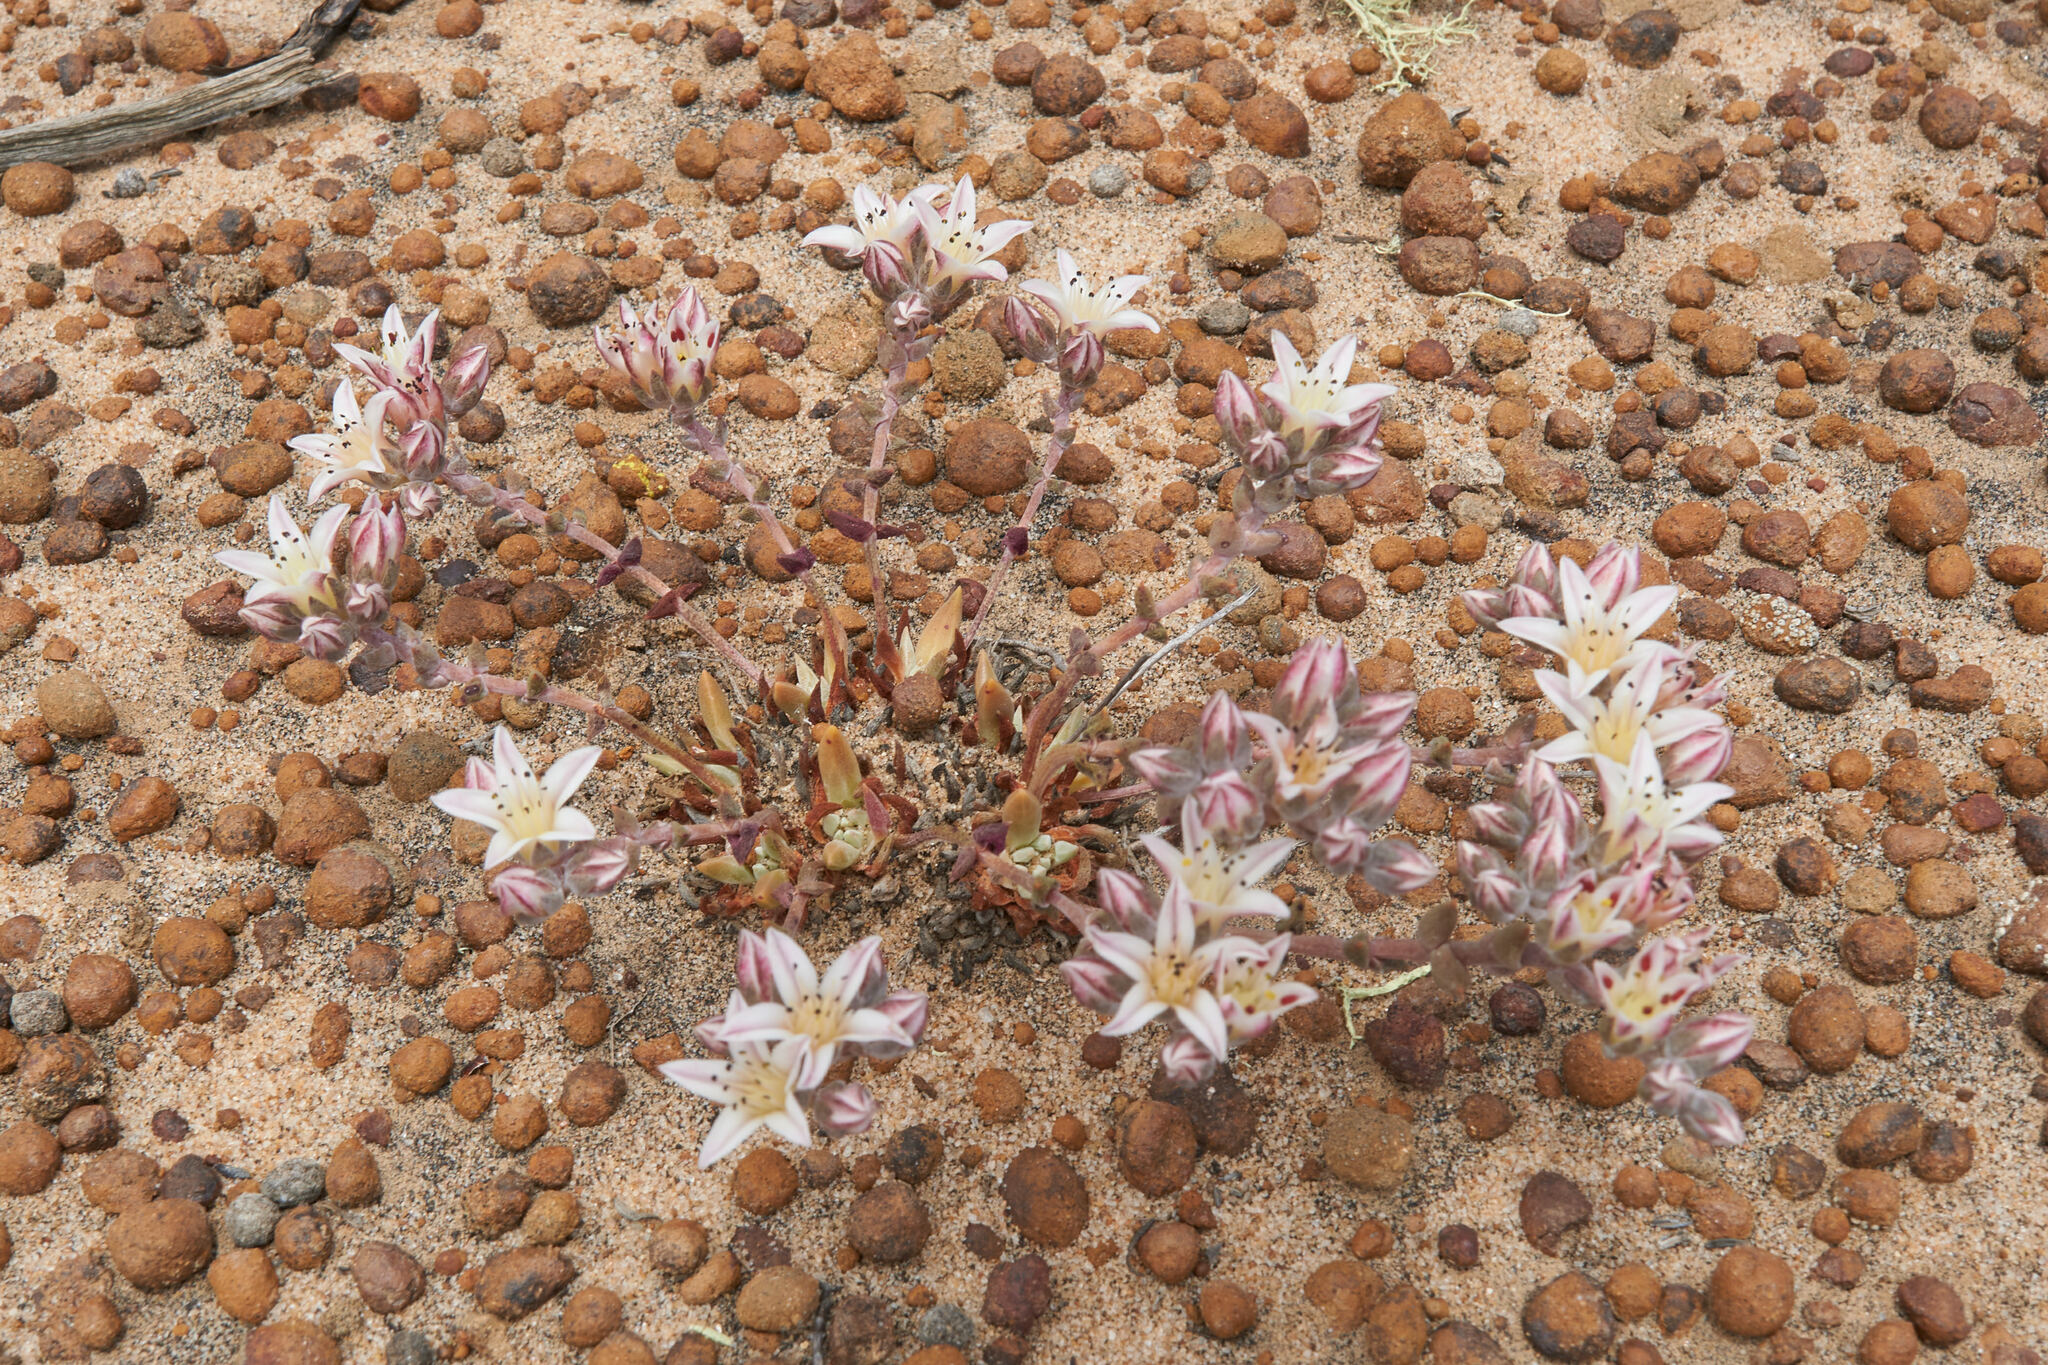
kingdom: Plantae
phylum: Tracheophyta
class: Magnoliopsida
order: Saxifragales
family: Crassulaceae
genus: Dudleya
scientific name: Dudleya crassifolia
